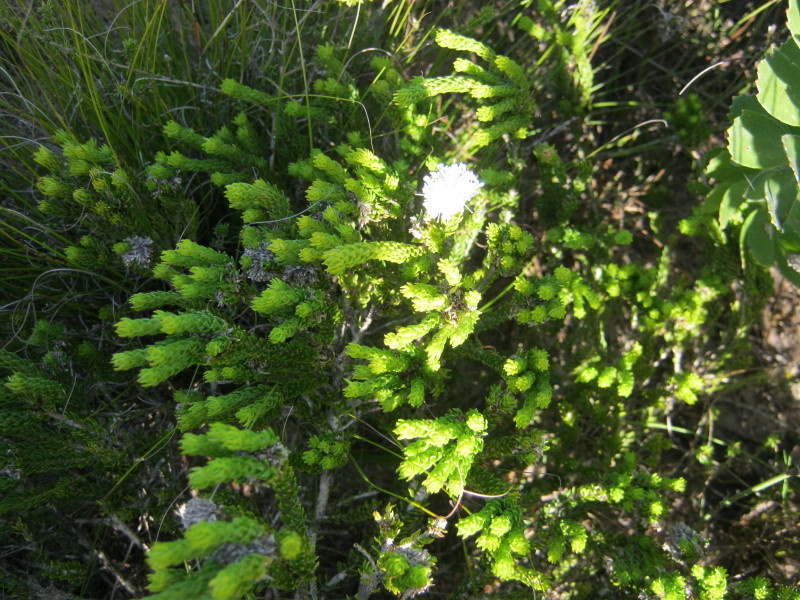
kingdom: Plantae
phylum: Tracheophyta
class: Magnoliopsida
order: Sapindales
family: Rutaceae
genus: Agathosma
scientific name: Agathosma eriantha
